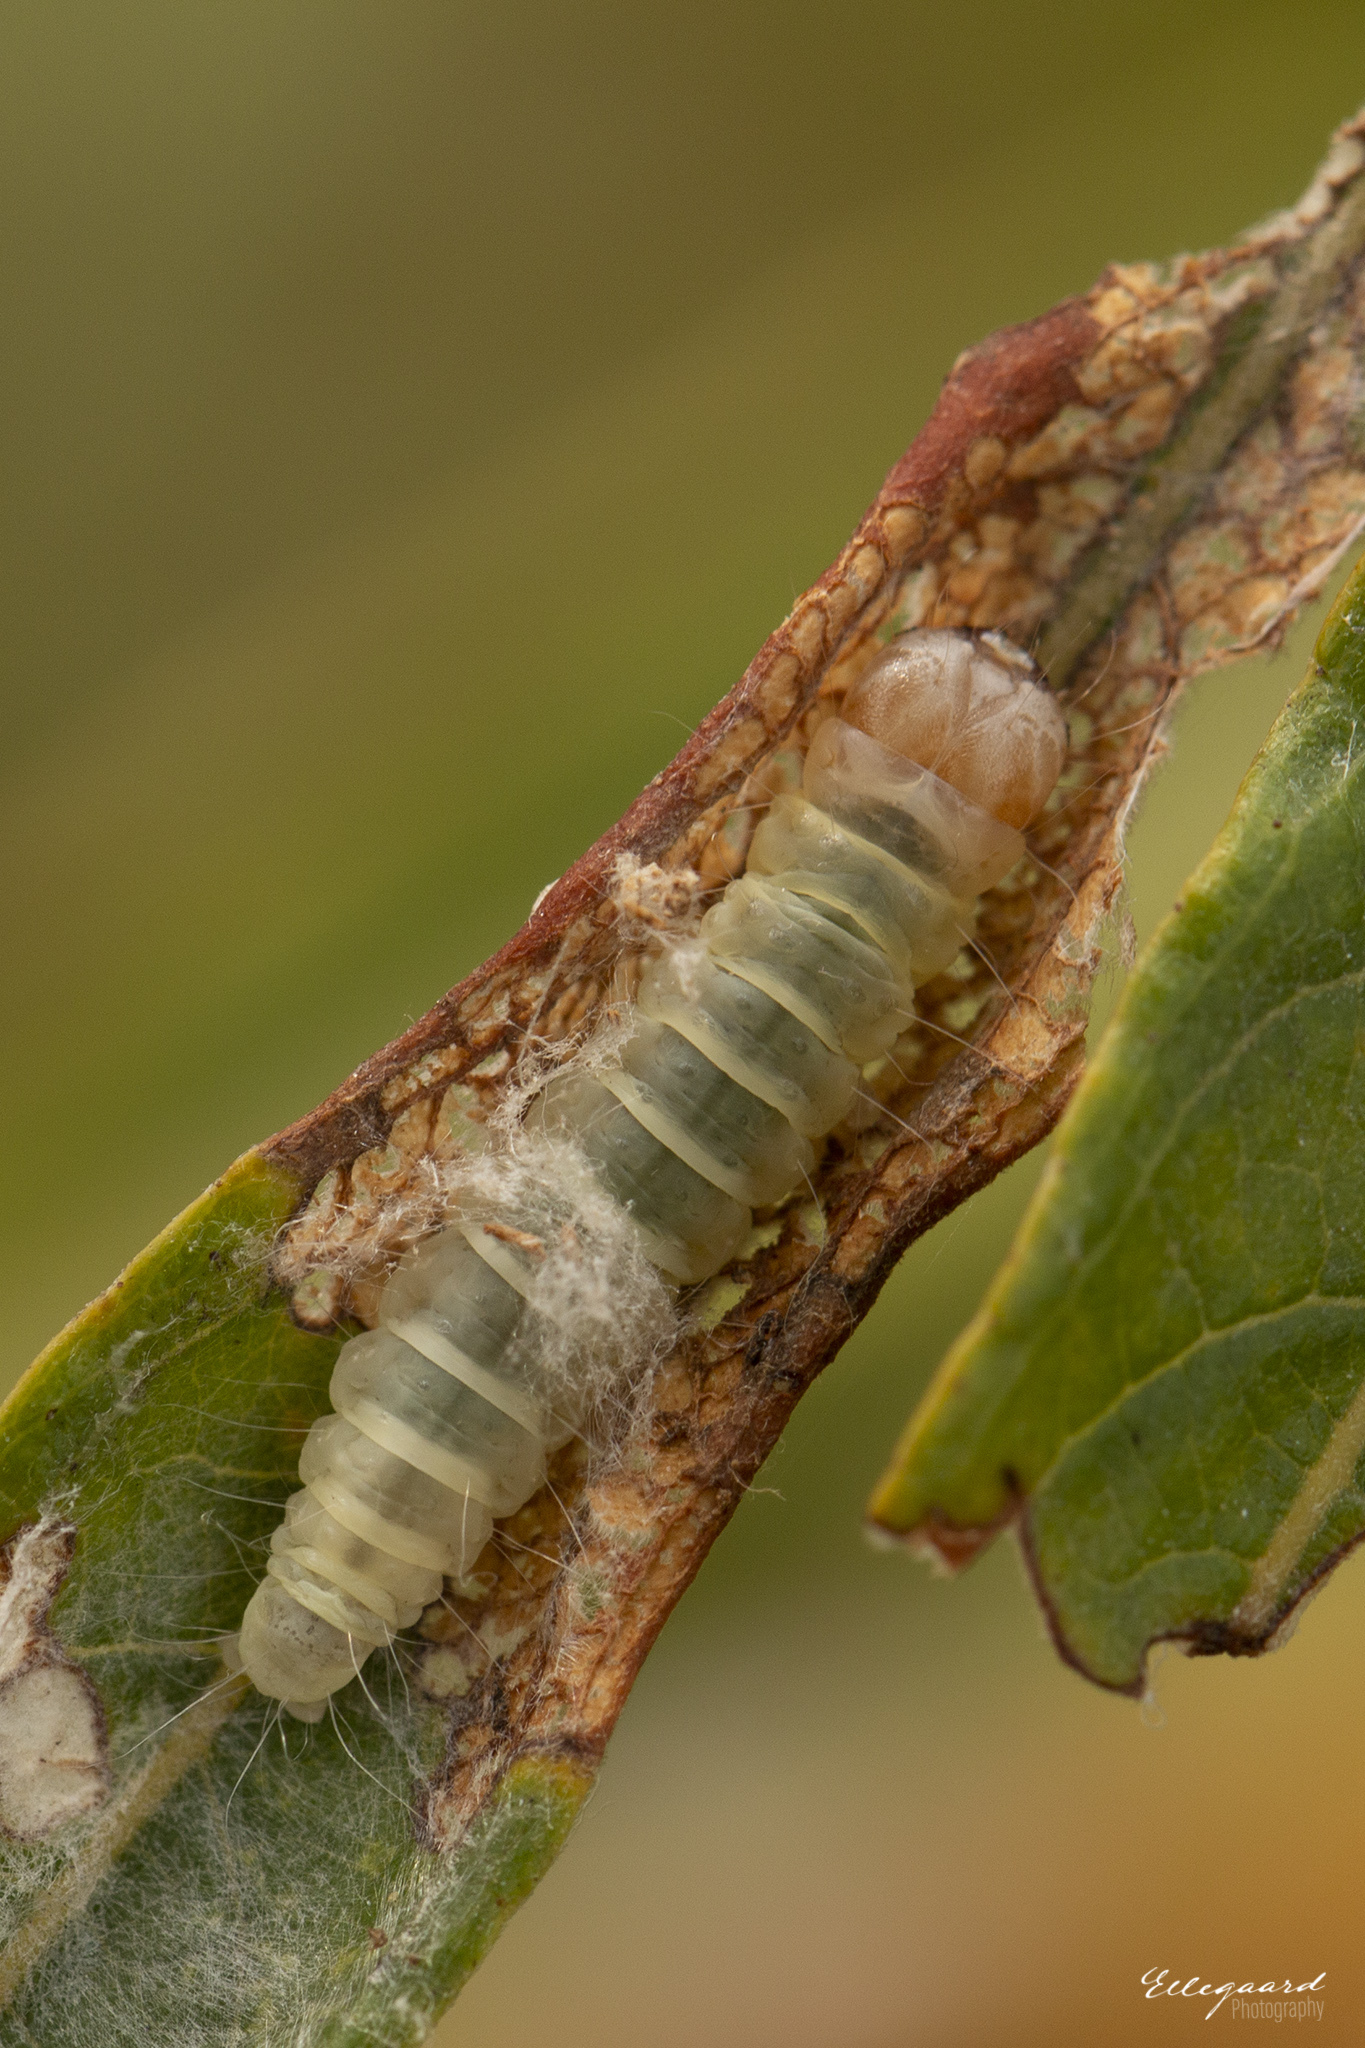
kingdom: Animalia
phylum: Arthropoda
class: Insecta
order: Lepidoptera
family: Lypusidae
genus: Diurnea
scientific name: Diurnea fagella
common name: March tubic
